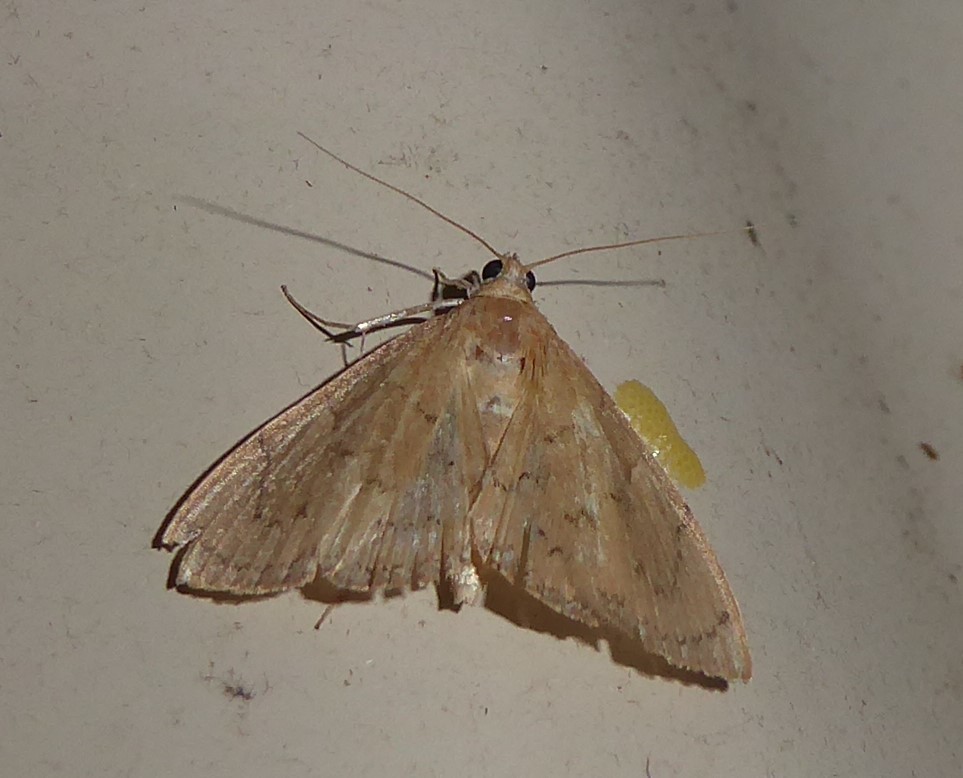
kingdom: Animalia
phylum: Arthropoda
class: Insecta
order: Lepidoptera
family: Crambidae
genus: Hyalobathra
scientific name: Hyalobathra archeleuca
